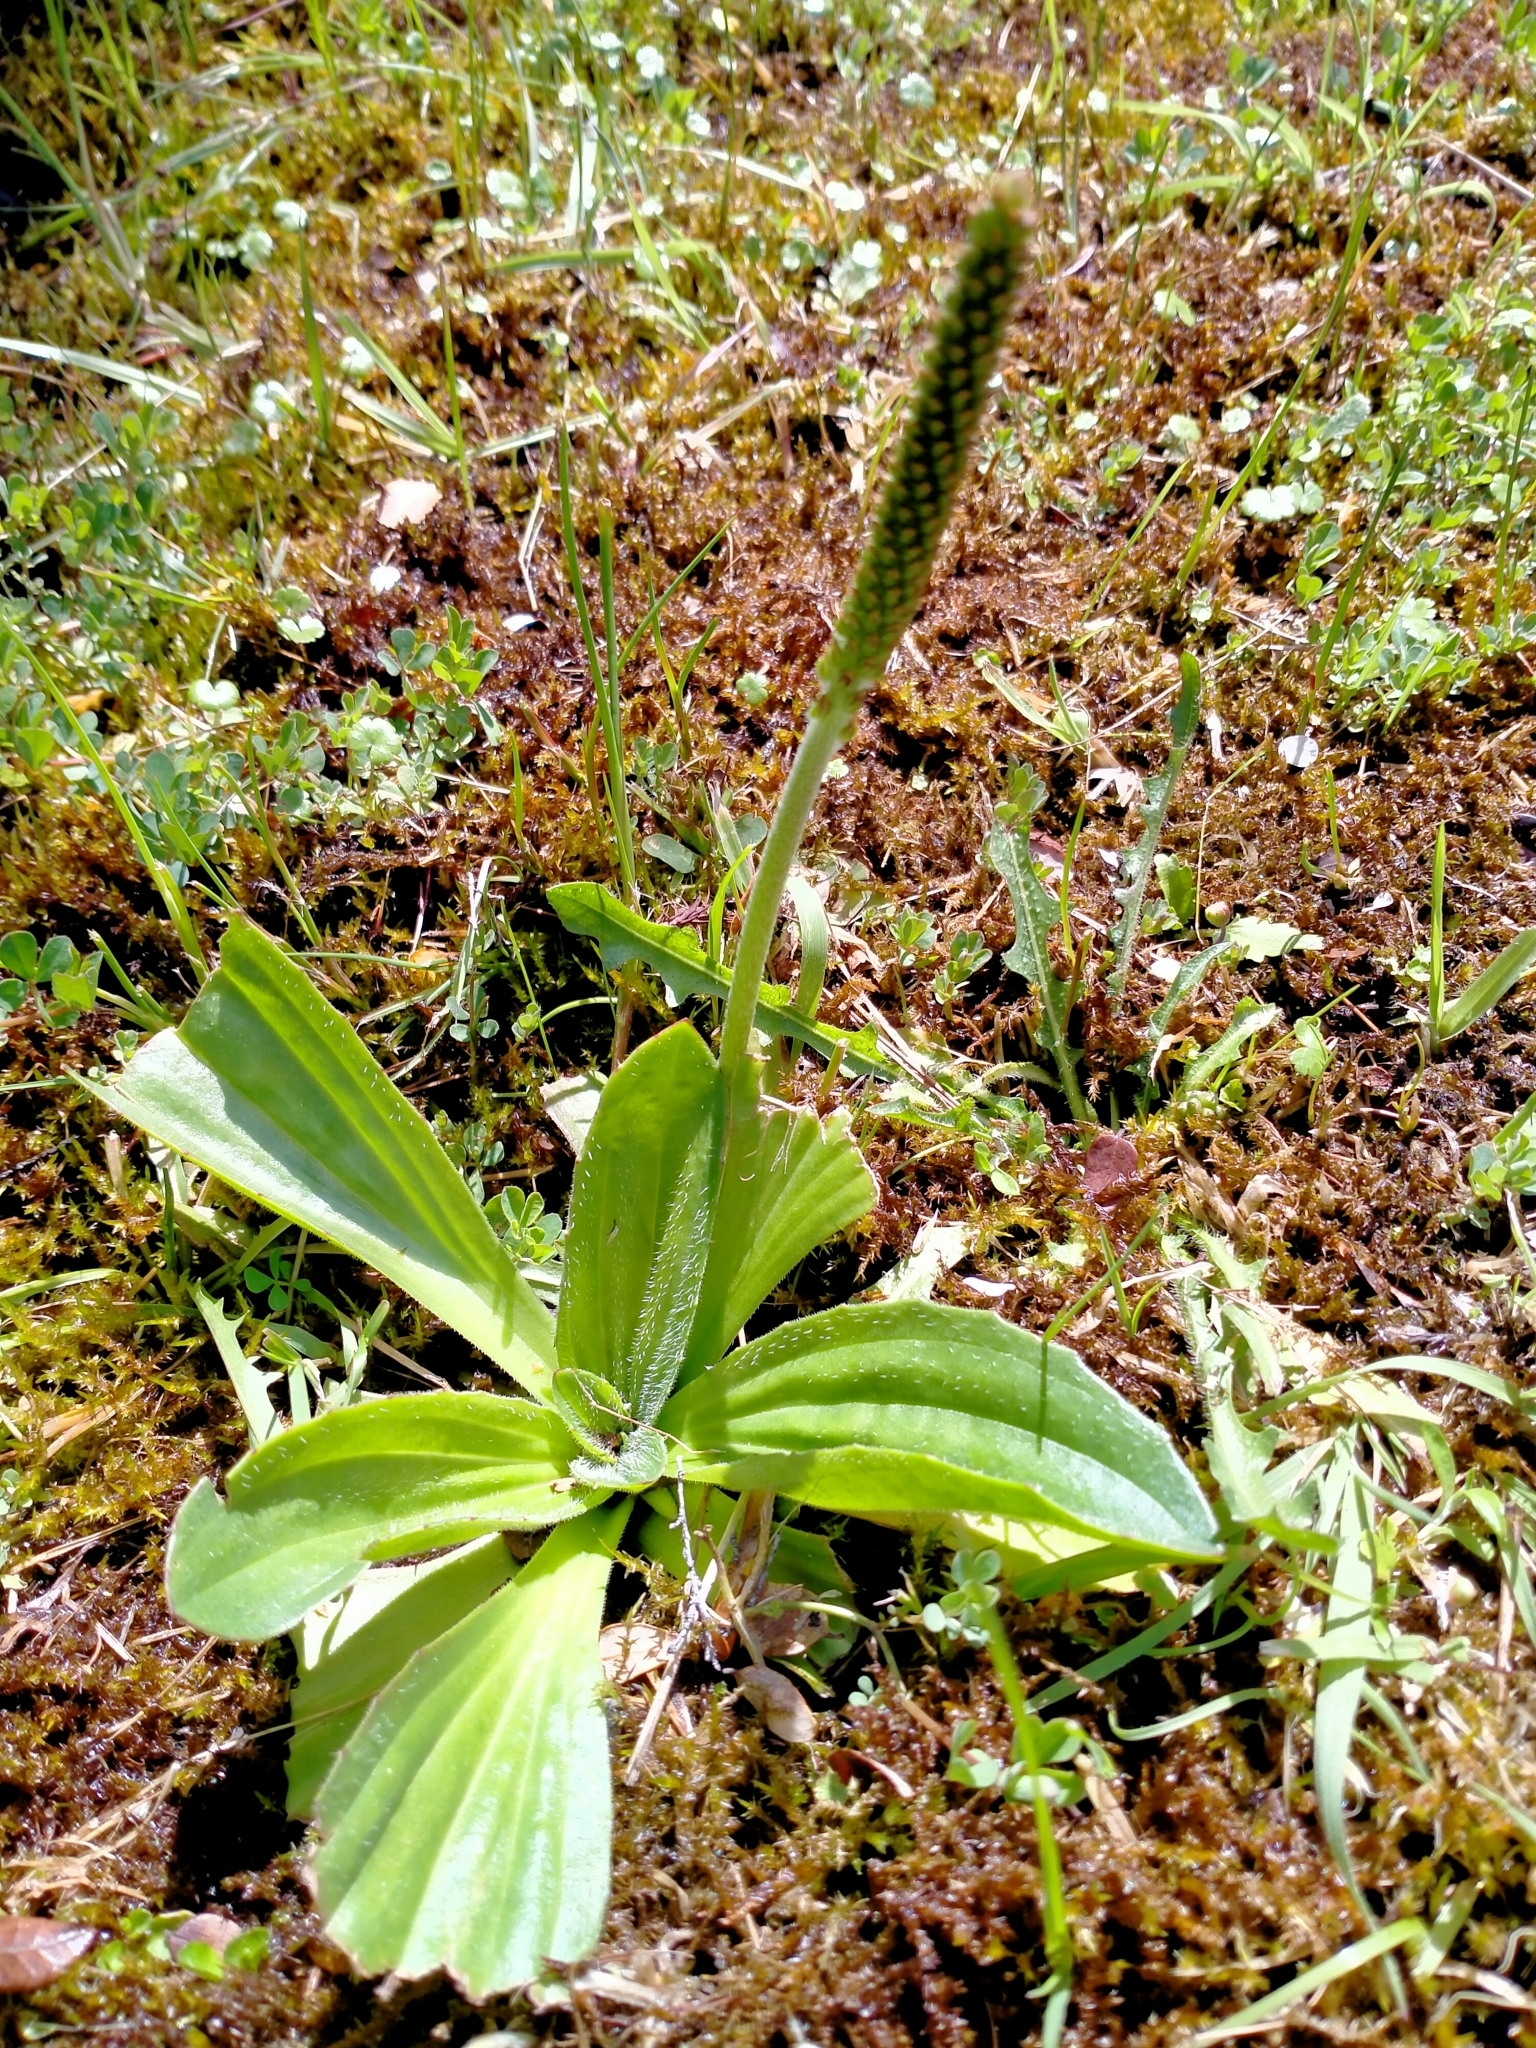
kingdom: Plantae
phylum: Tracheophyta
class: Magnoliopsida
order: Lamiales
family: Plantaginaceae
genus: Plantago
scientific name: Plantago australis
